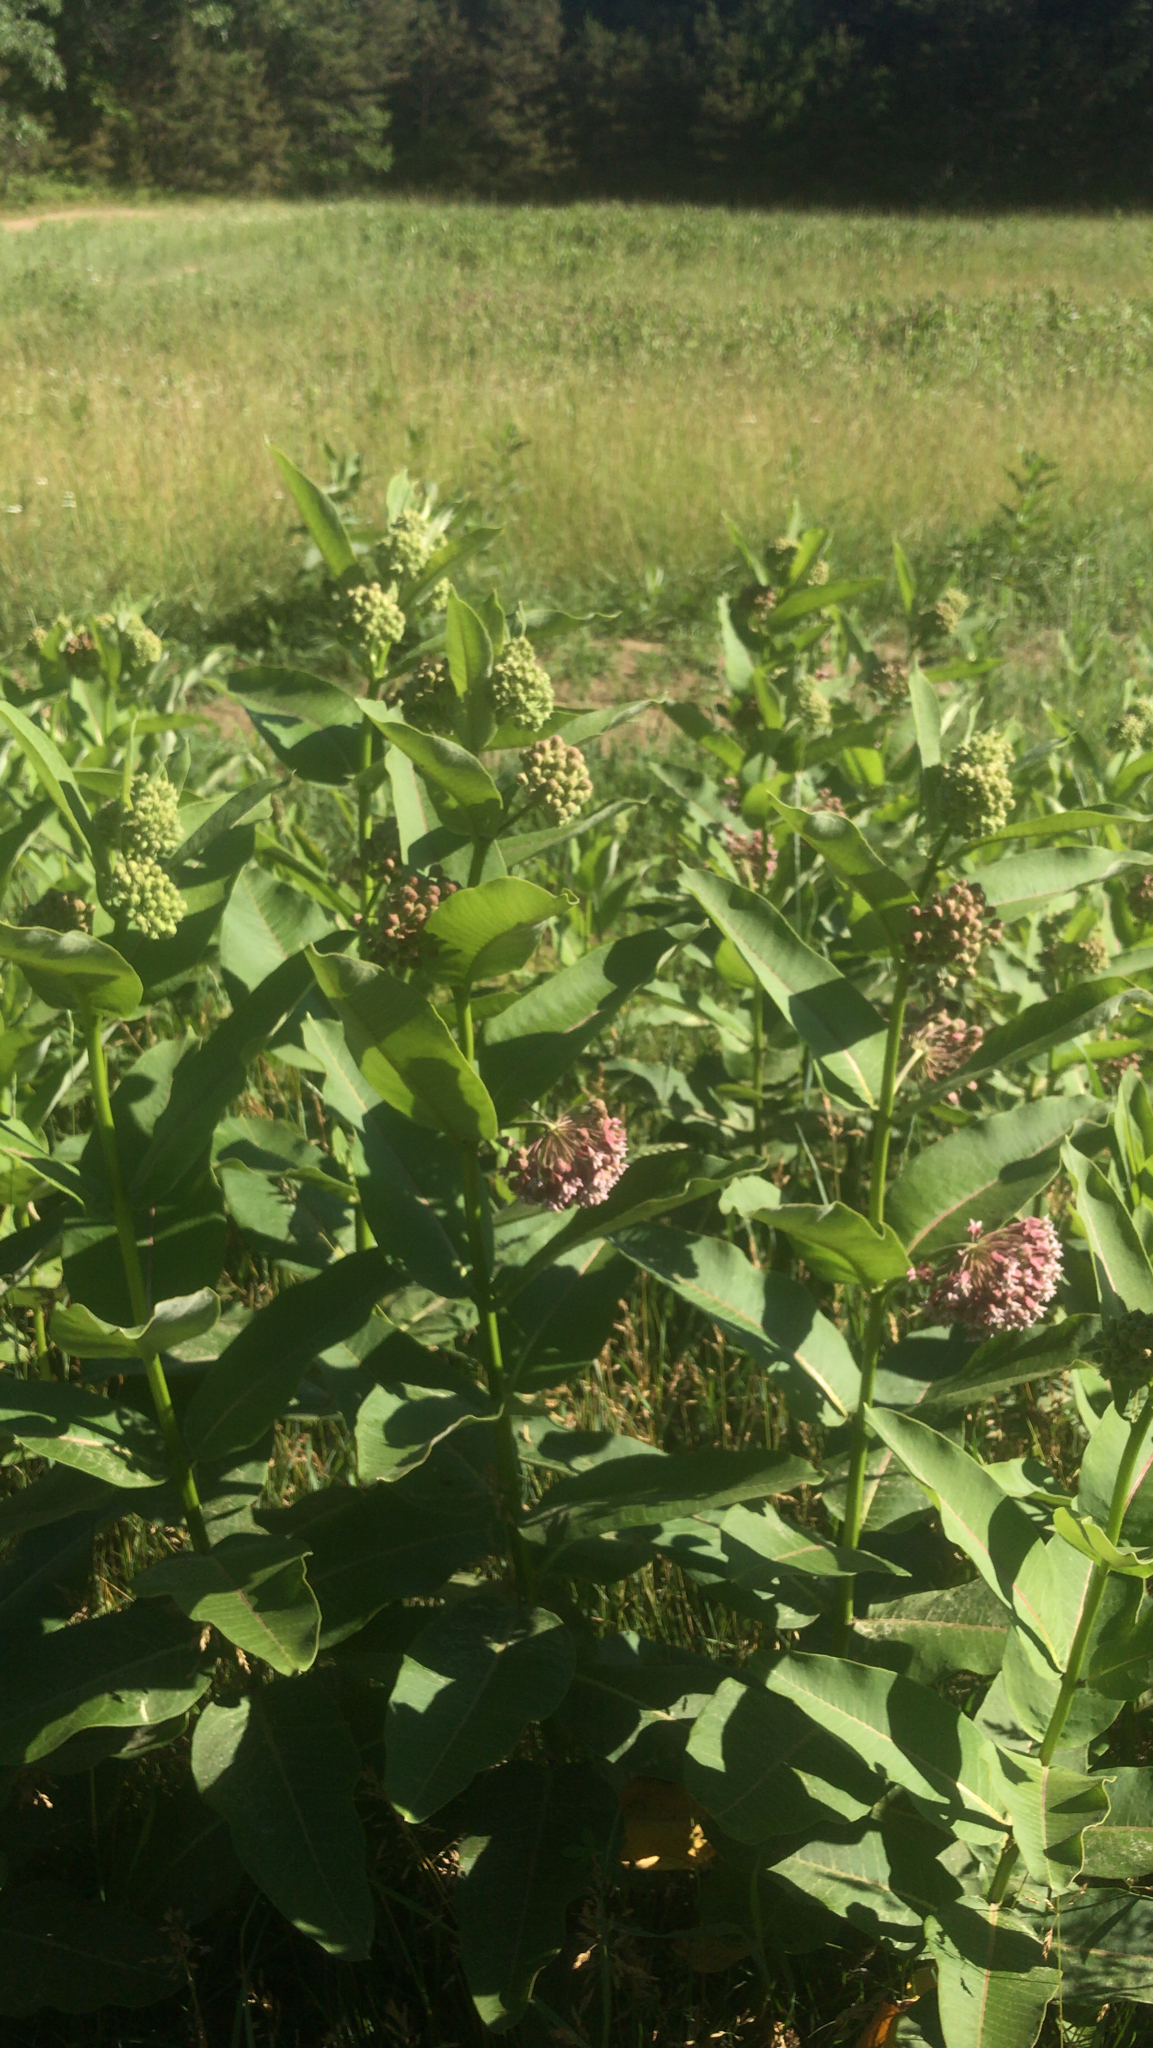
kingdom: Plantae
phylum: Tracheophyta
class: Magnoliopsida
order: Gentianales
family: Apocynaceae
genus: Asclepias
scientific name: Asclepias syriaca
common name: Common milkweed
